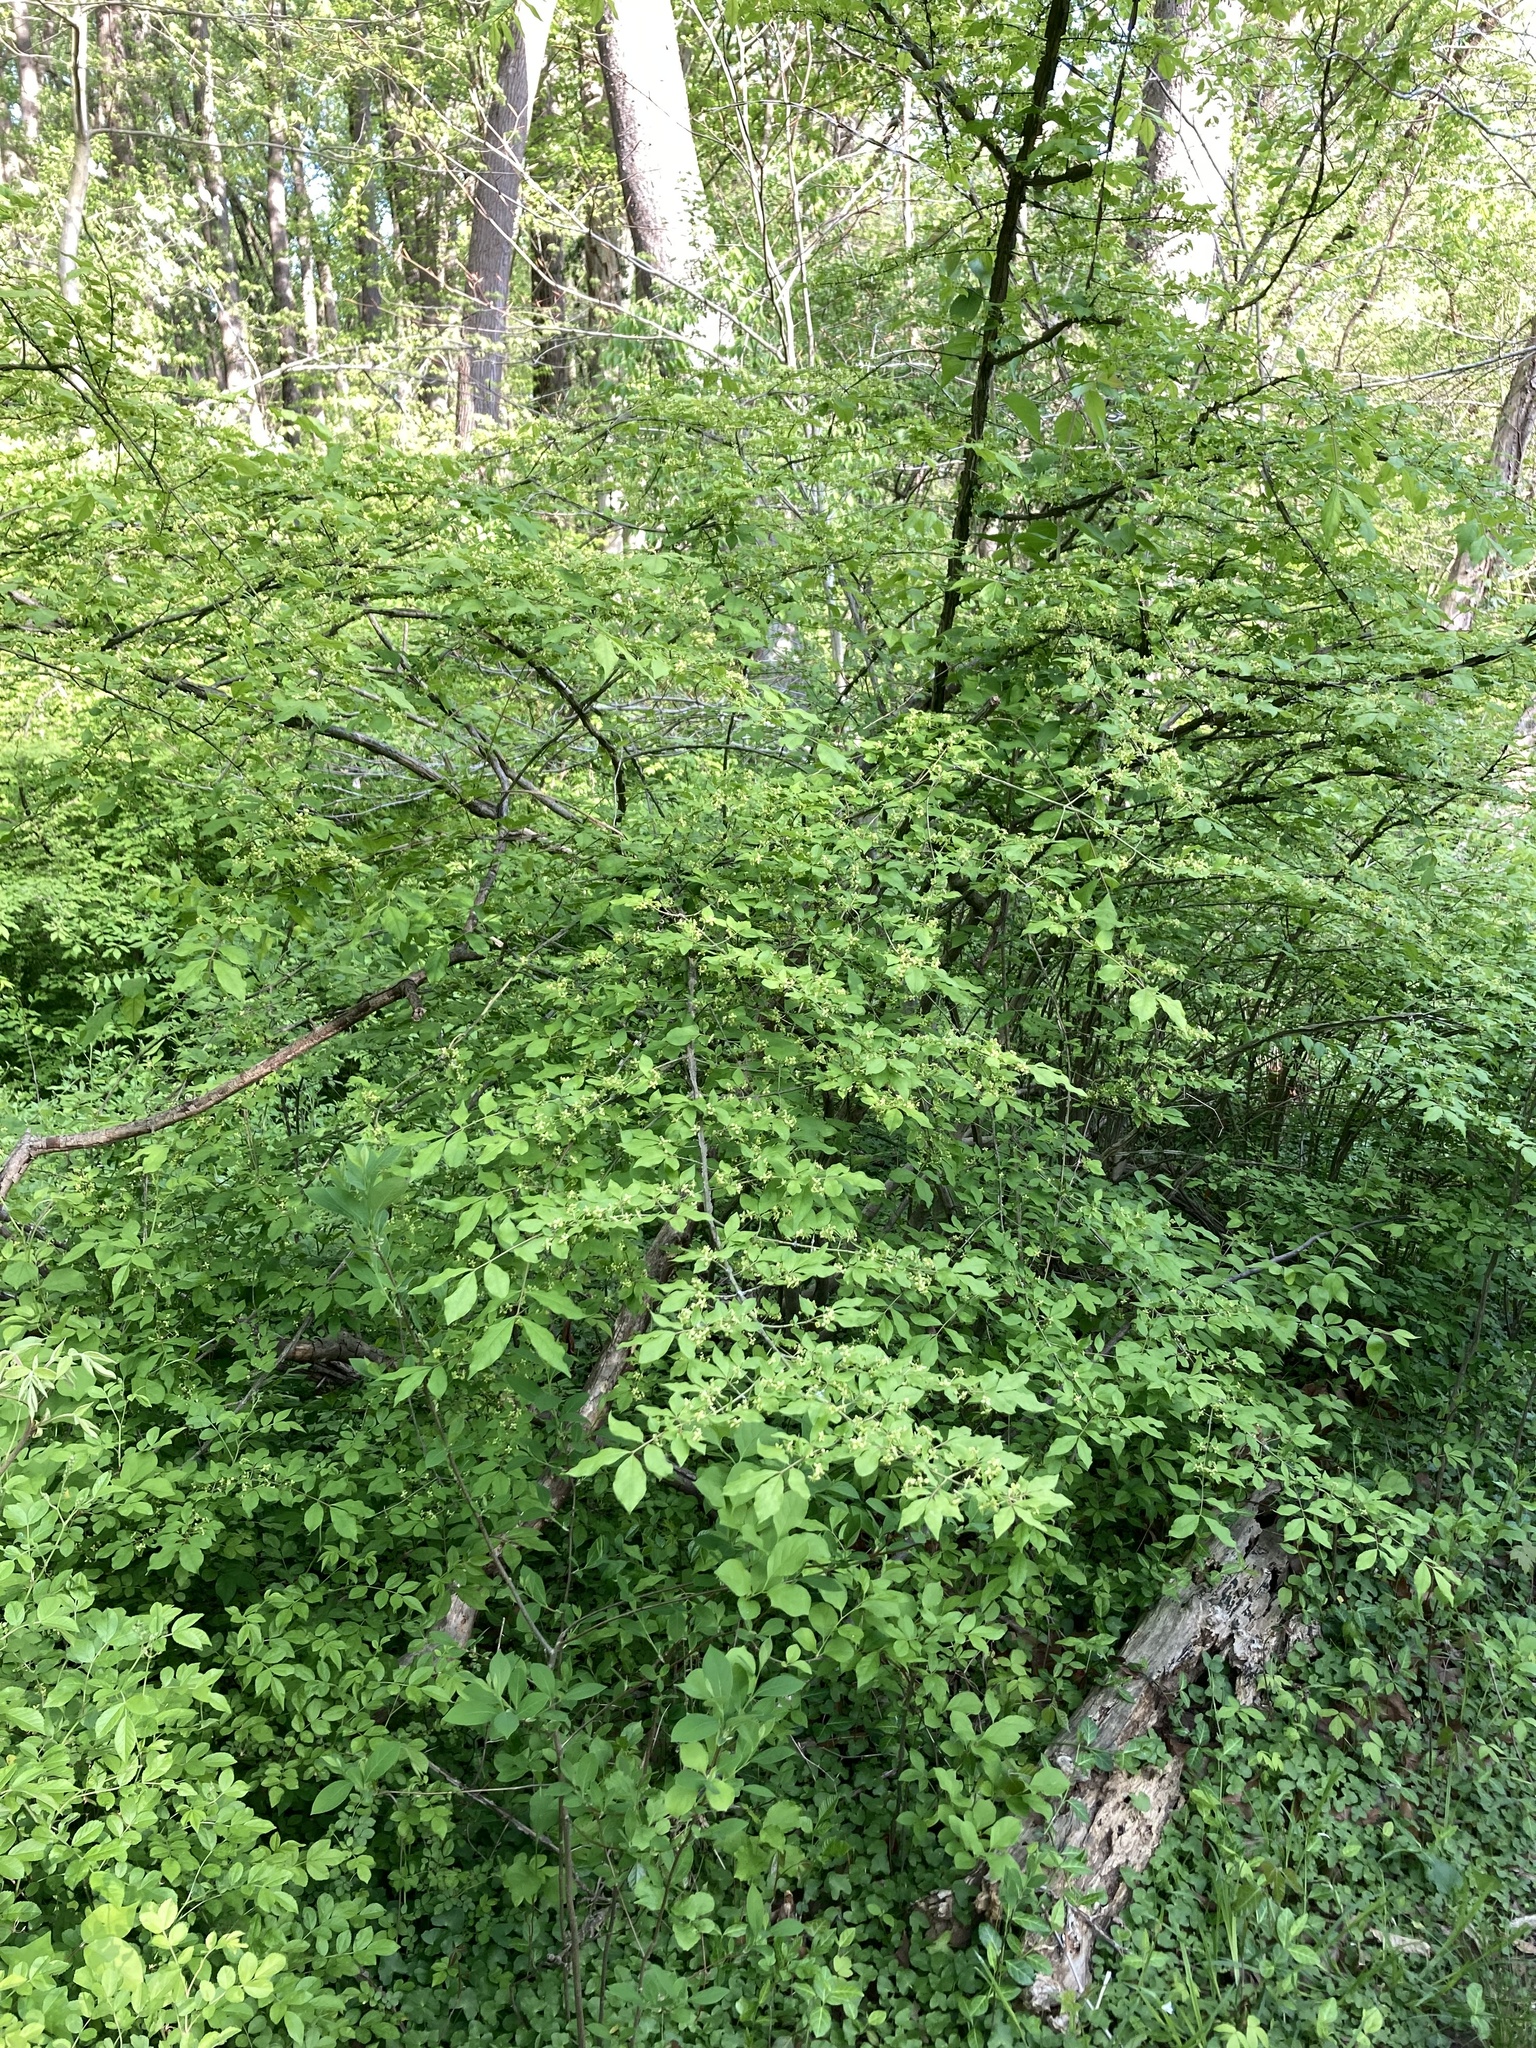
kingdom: Plantae
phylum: Tracheophyta
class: Magnoliopsida
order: Celastrales
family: Celastraceae
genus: Euonymus
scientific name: Euonymus alatus
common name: Winged euonymus
